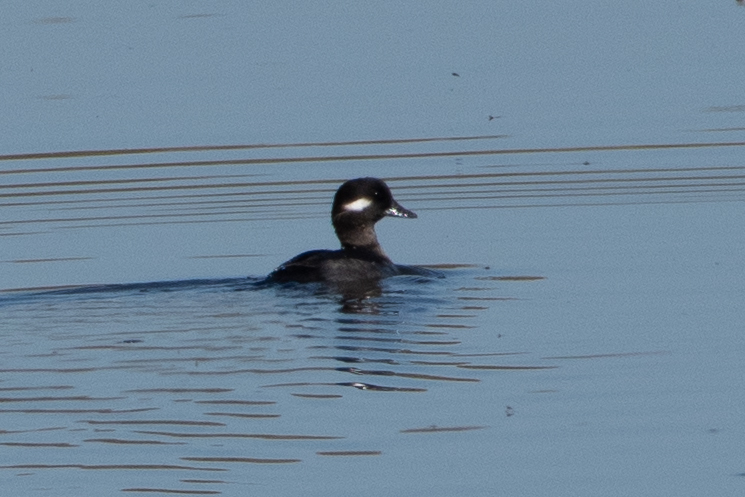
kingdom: Animalia
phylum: Chordata
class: Aves
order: Anseriformes
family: Anatidae
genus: Bucephala
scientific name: Bucephala albeola
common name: Bufflehead
